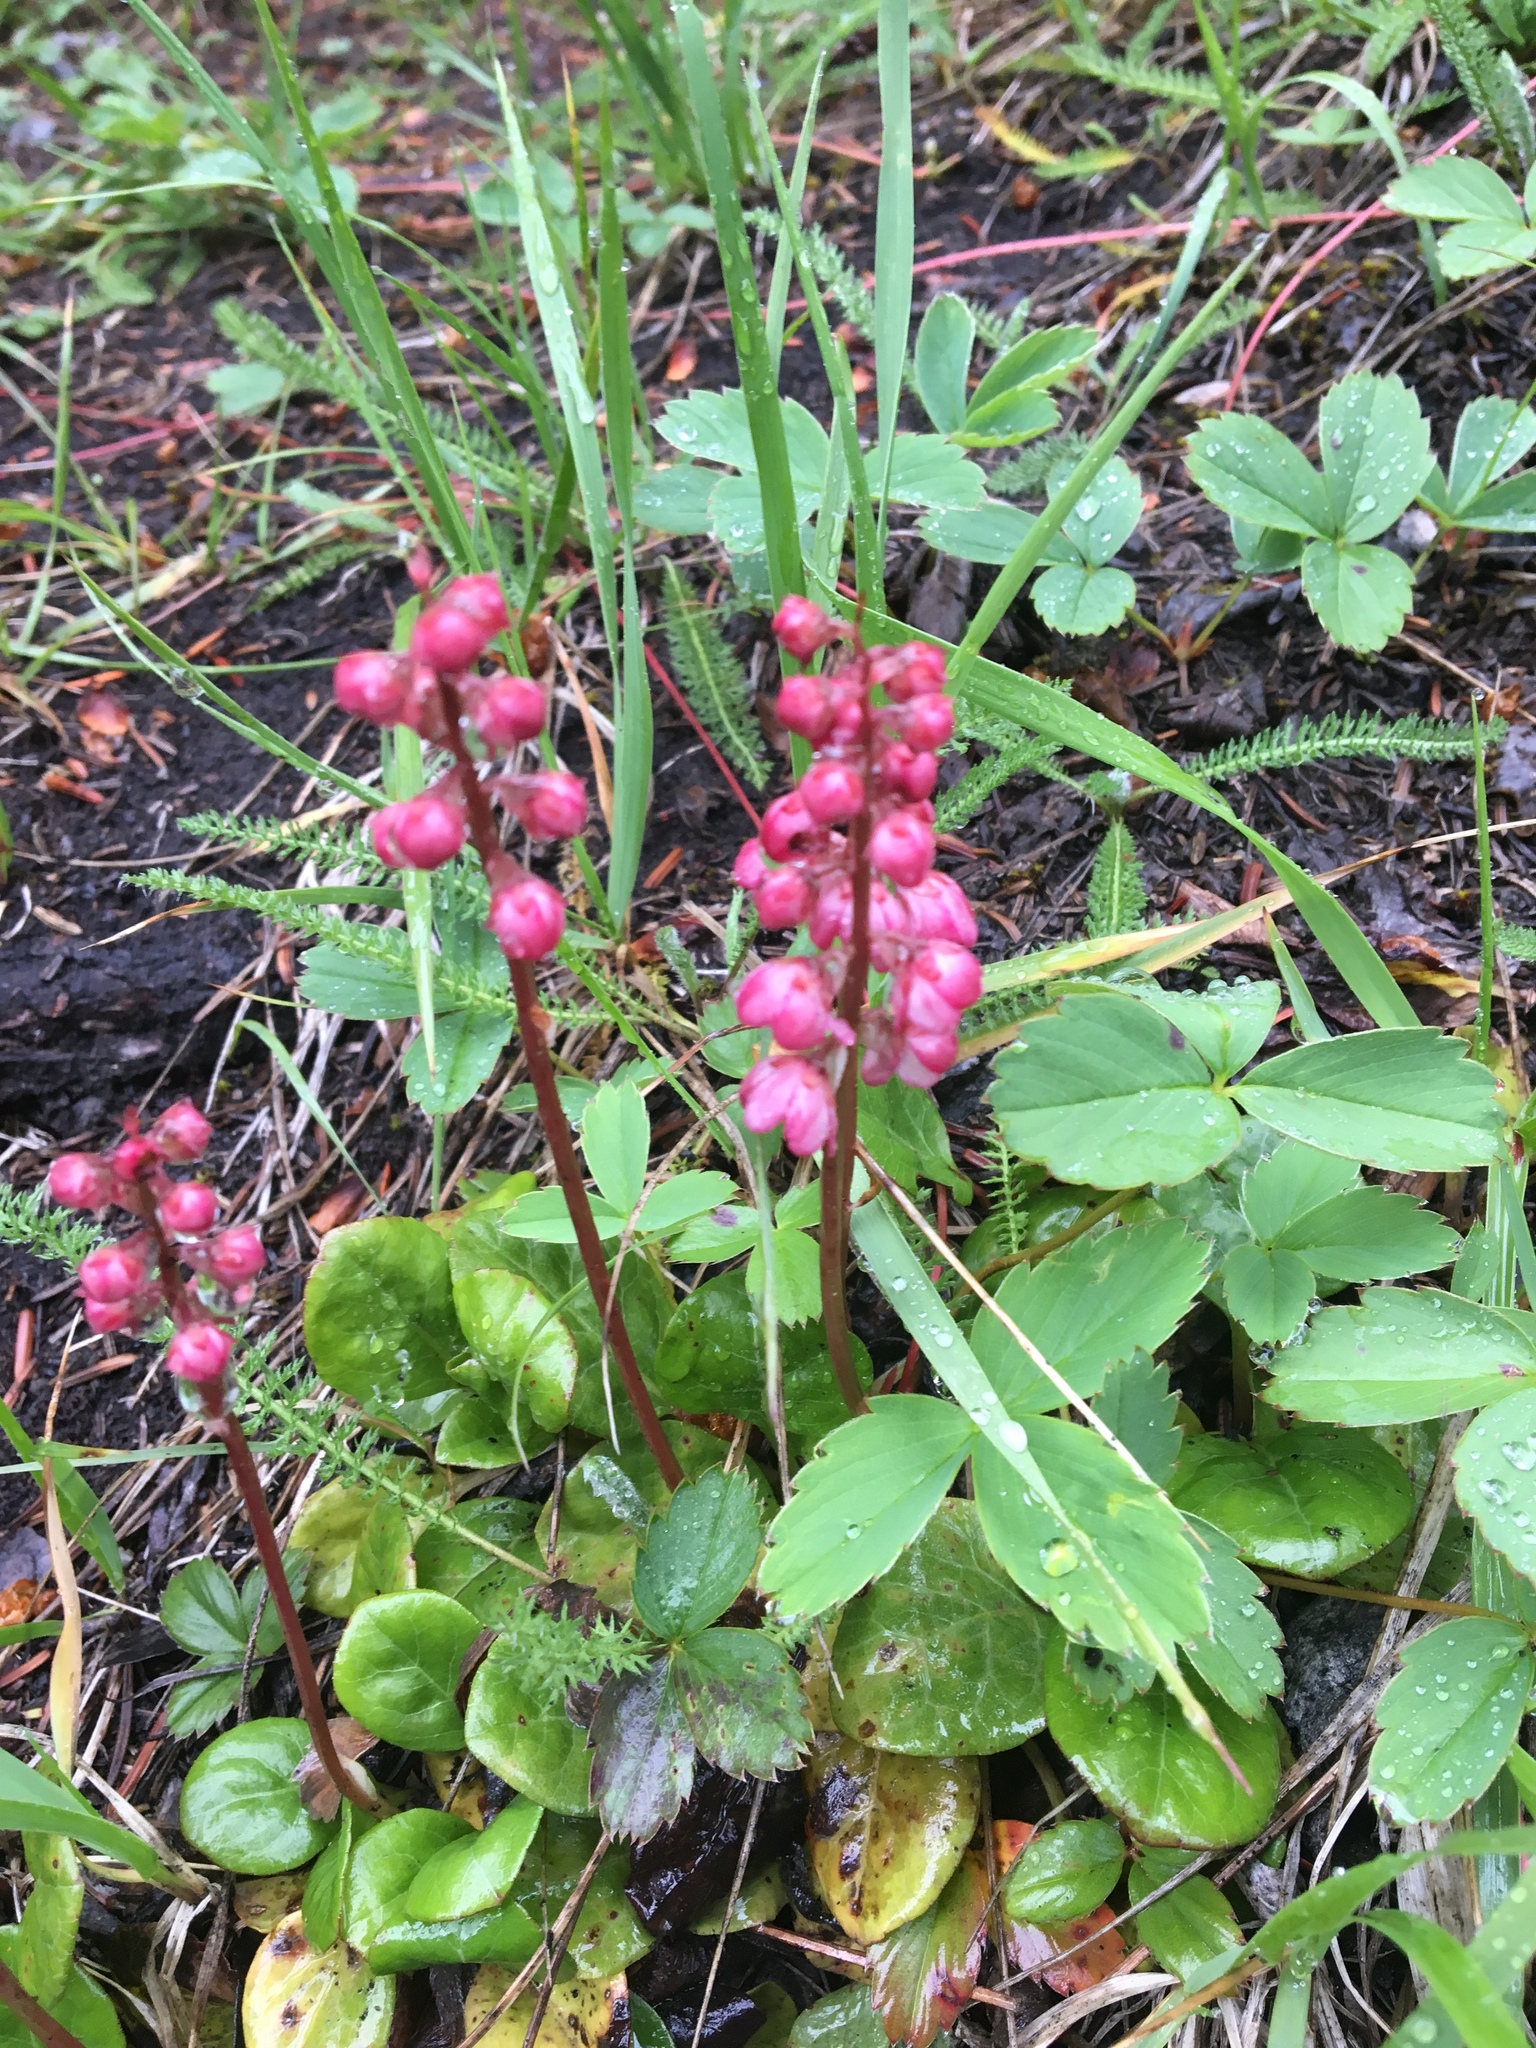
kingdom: Plantae
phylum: Tracheophyta
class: Magnoliopsida
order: Ericales
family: Ericaceae
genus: Pyrola
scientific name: Pyrola asarifolia
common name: Bog wintergreen
